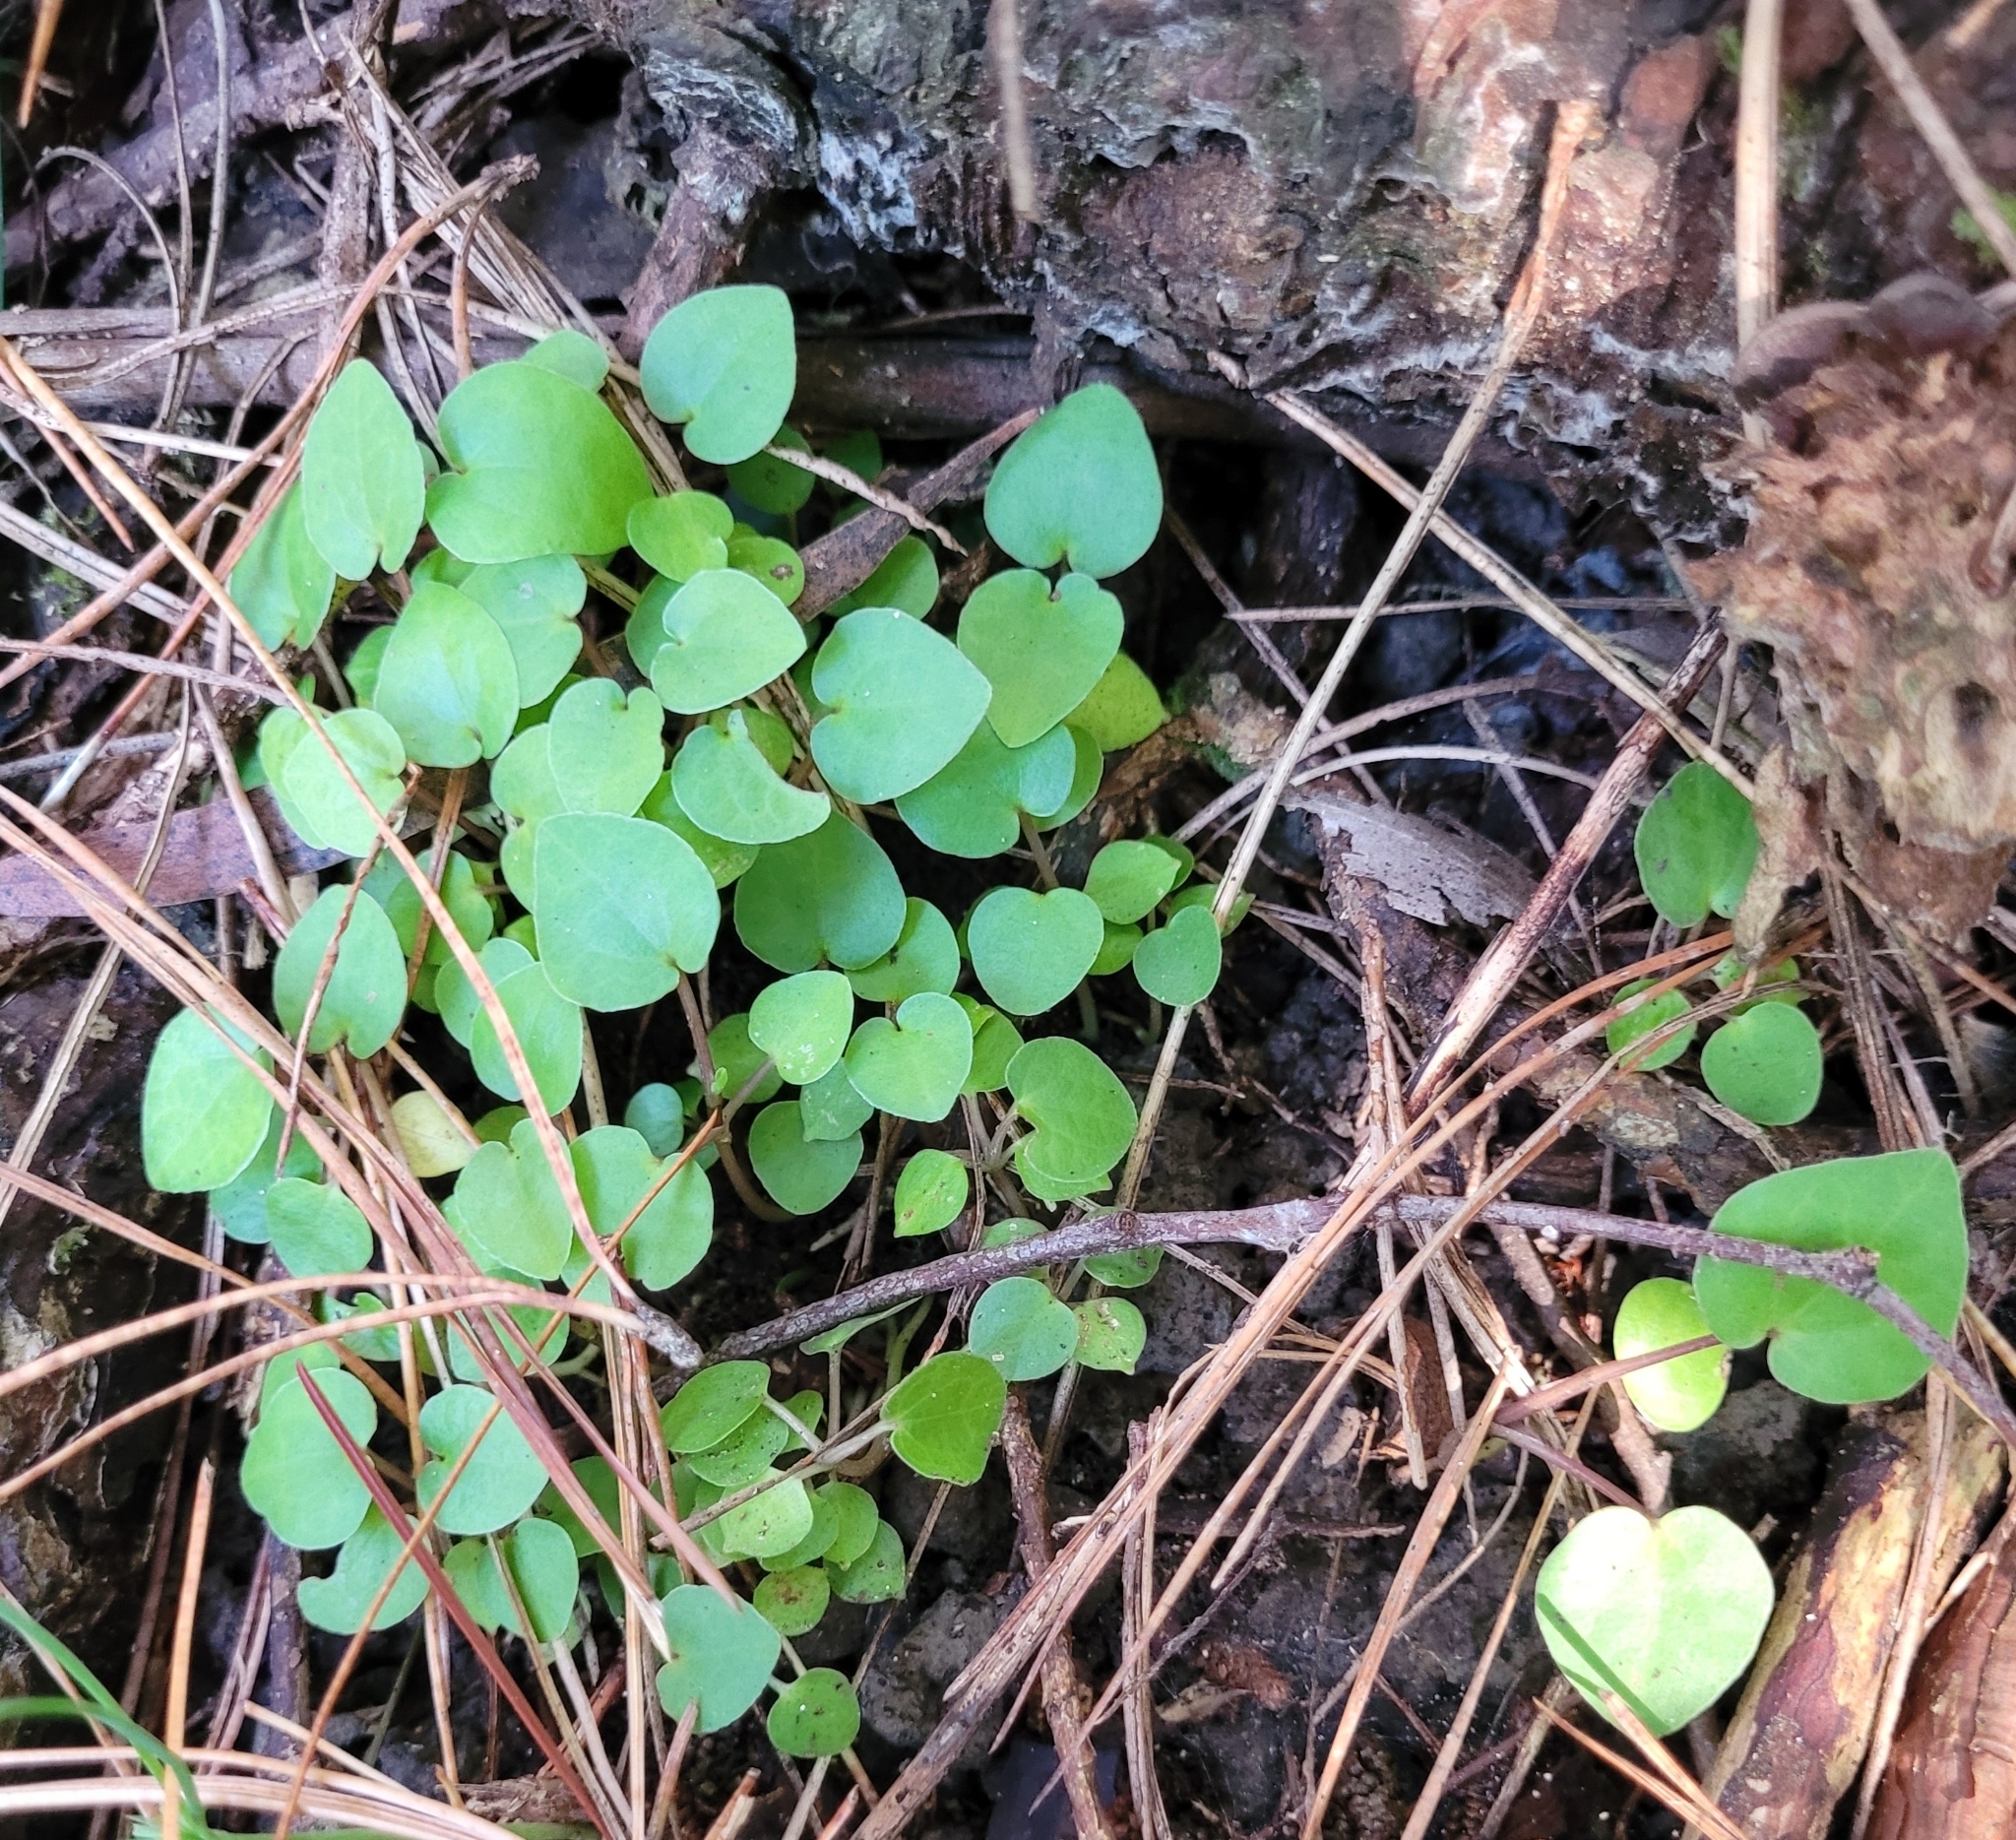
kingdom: Plantae
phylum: Tracheophyta
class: Magnoliopsida
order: Piperales
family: Piperaceae
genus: Macropiper
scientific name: Macropiper excelsum
